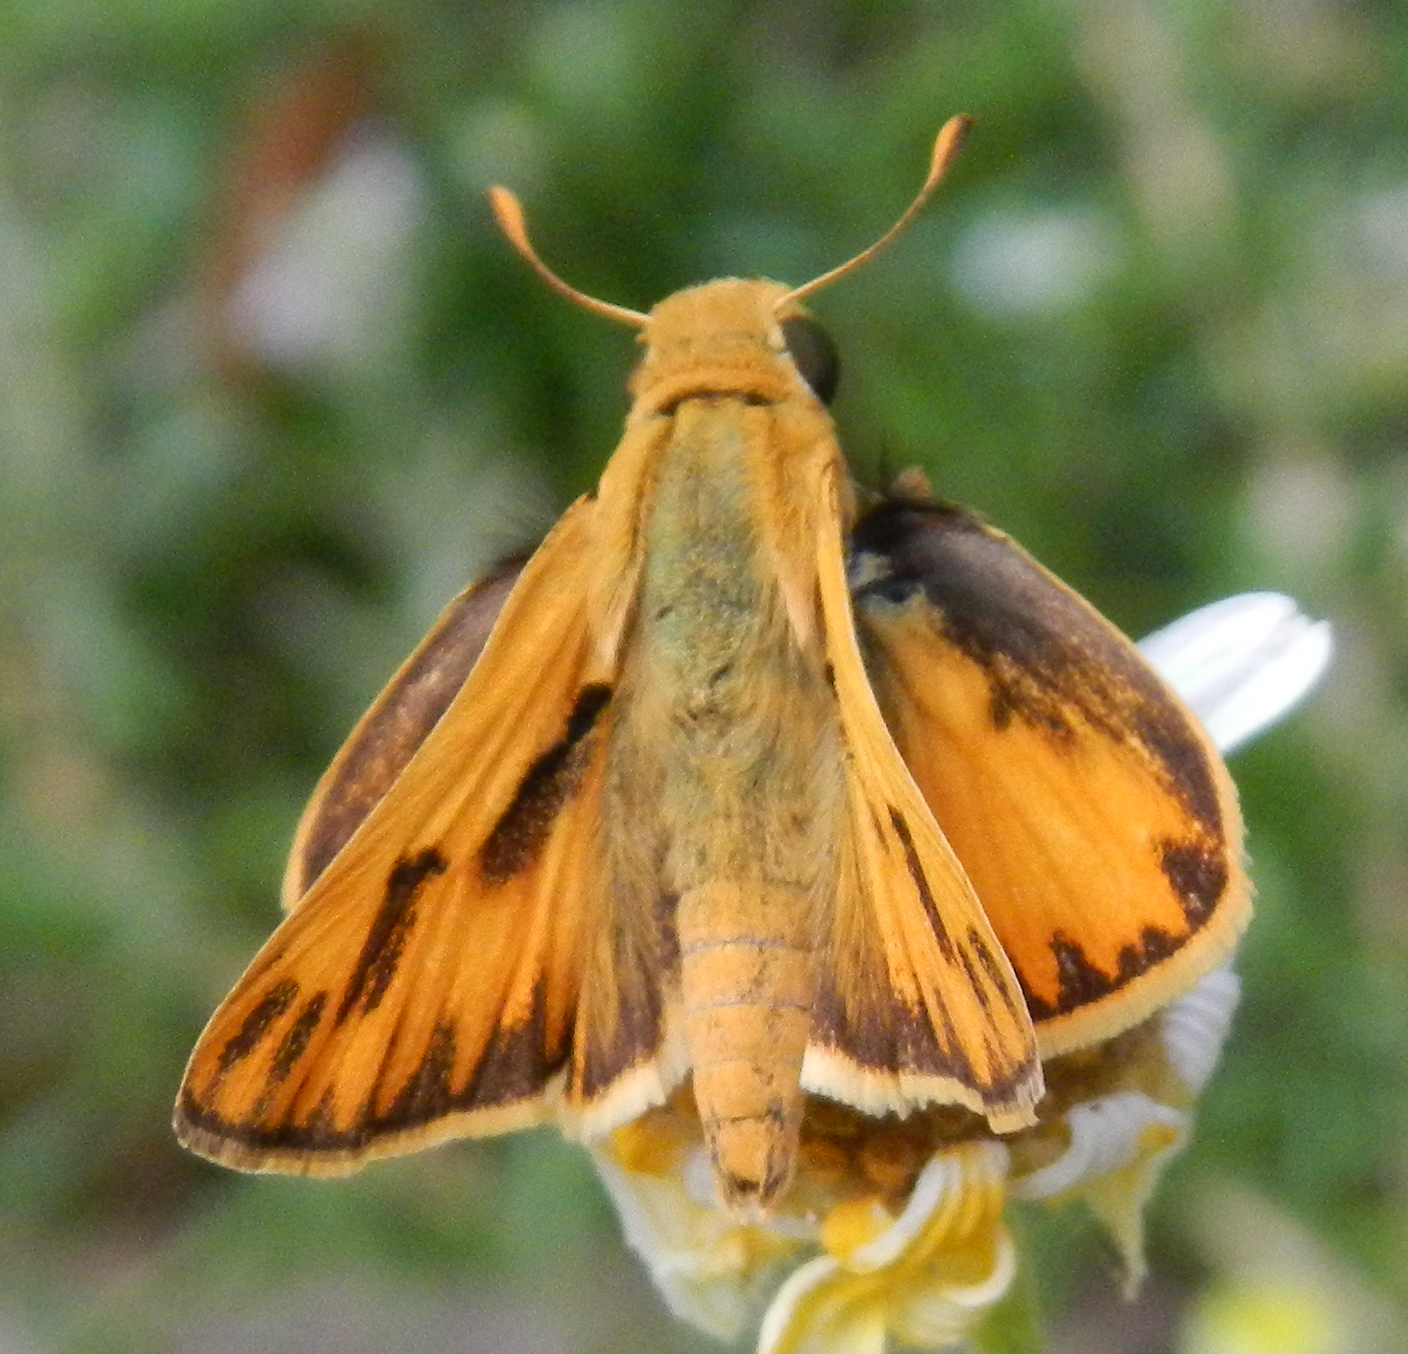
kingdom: Animalia
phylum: Arthropoda
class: Insecta
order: Lepidoptera
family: Hesperiidae
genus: Hylephila
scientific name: Hylephila phyleus
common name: Fiery skipper
